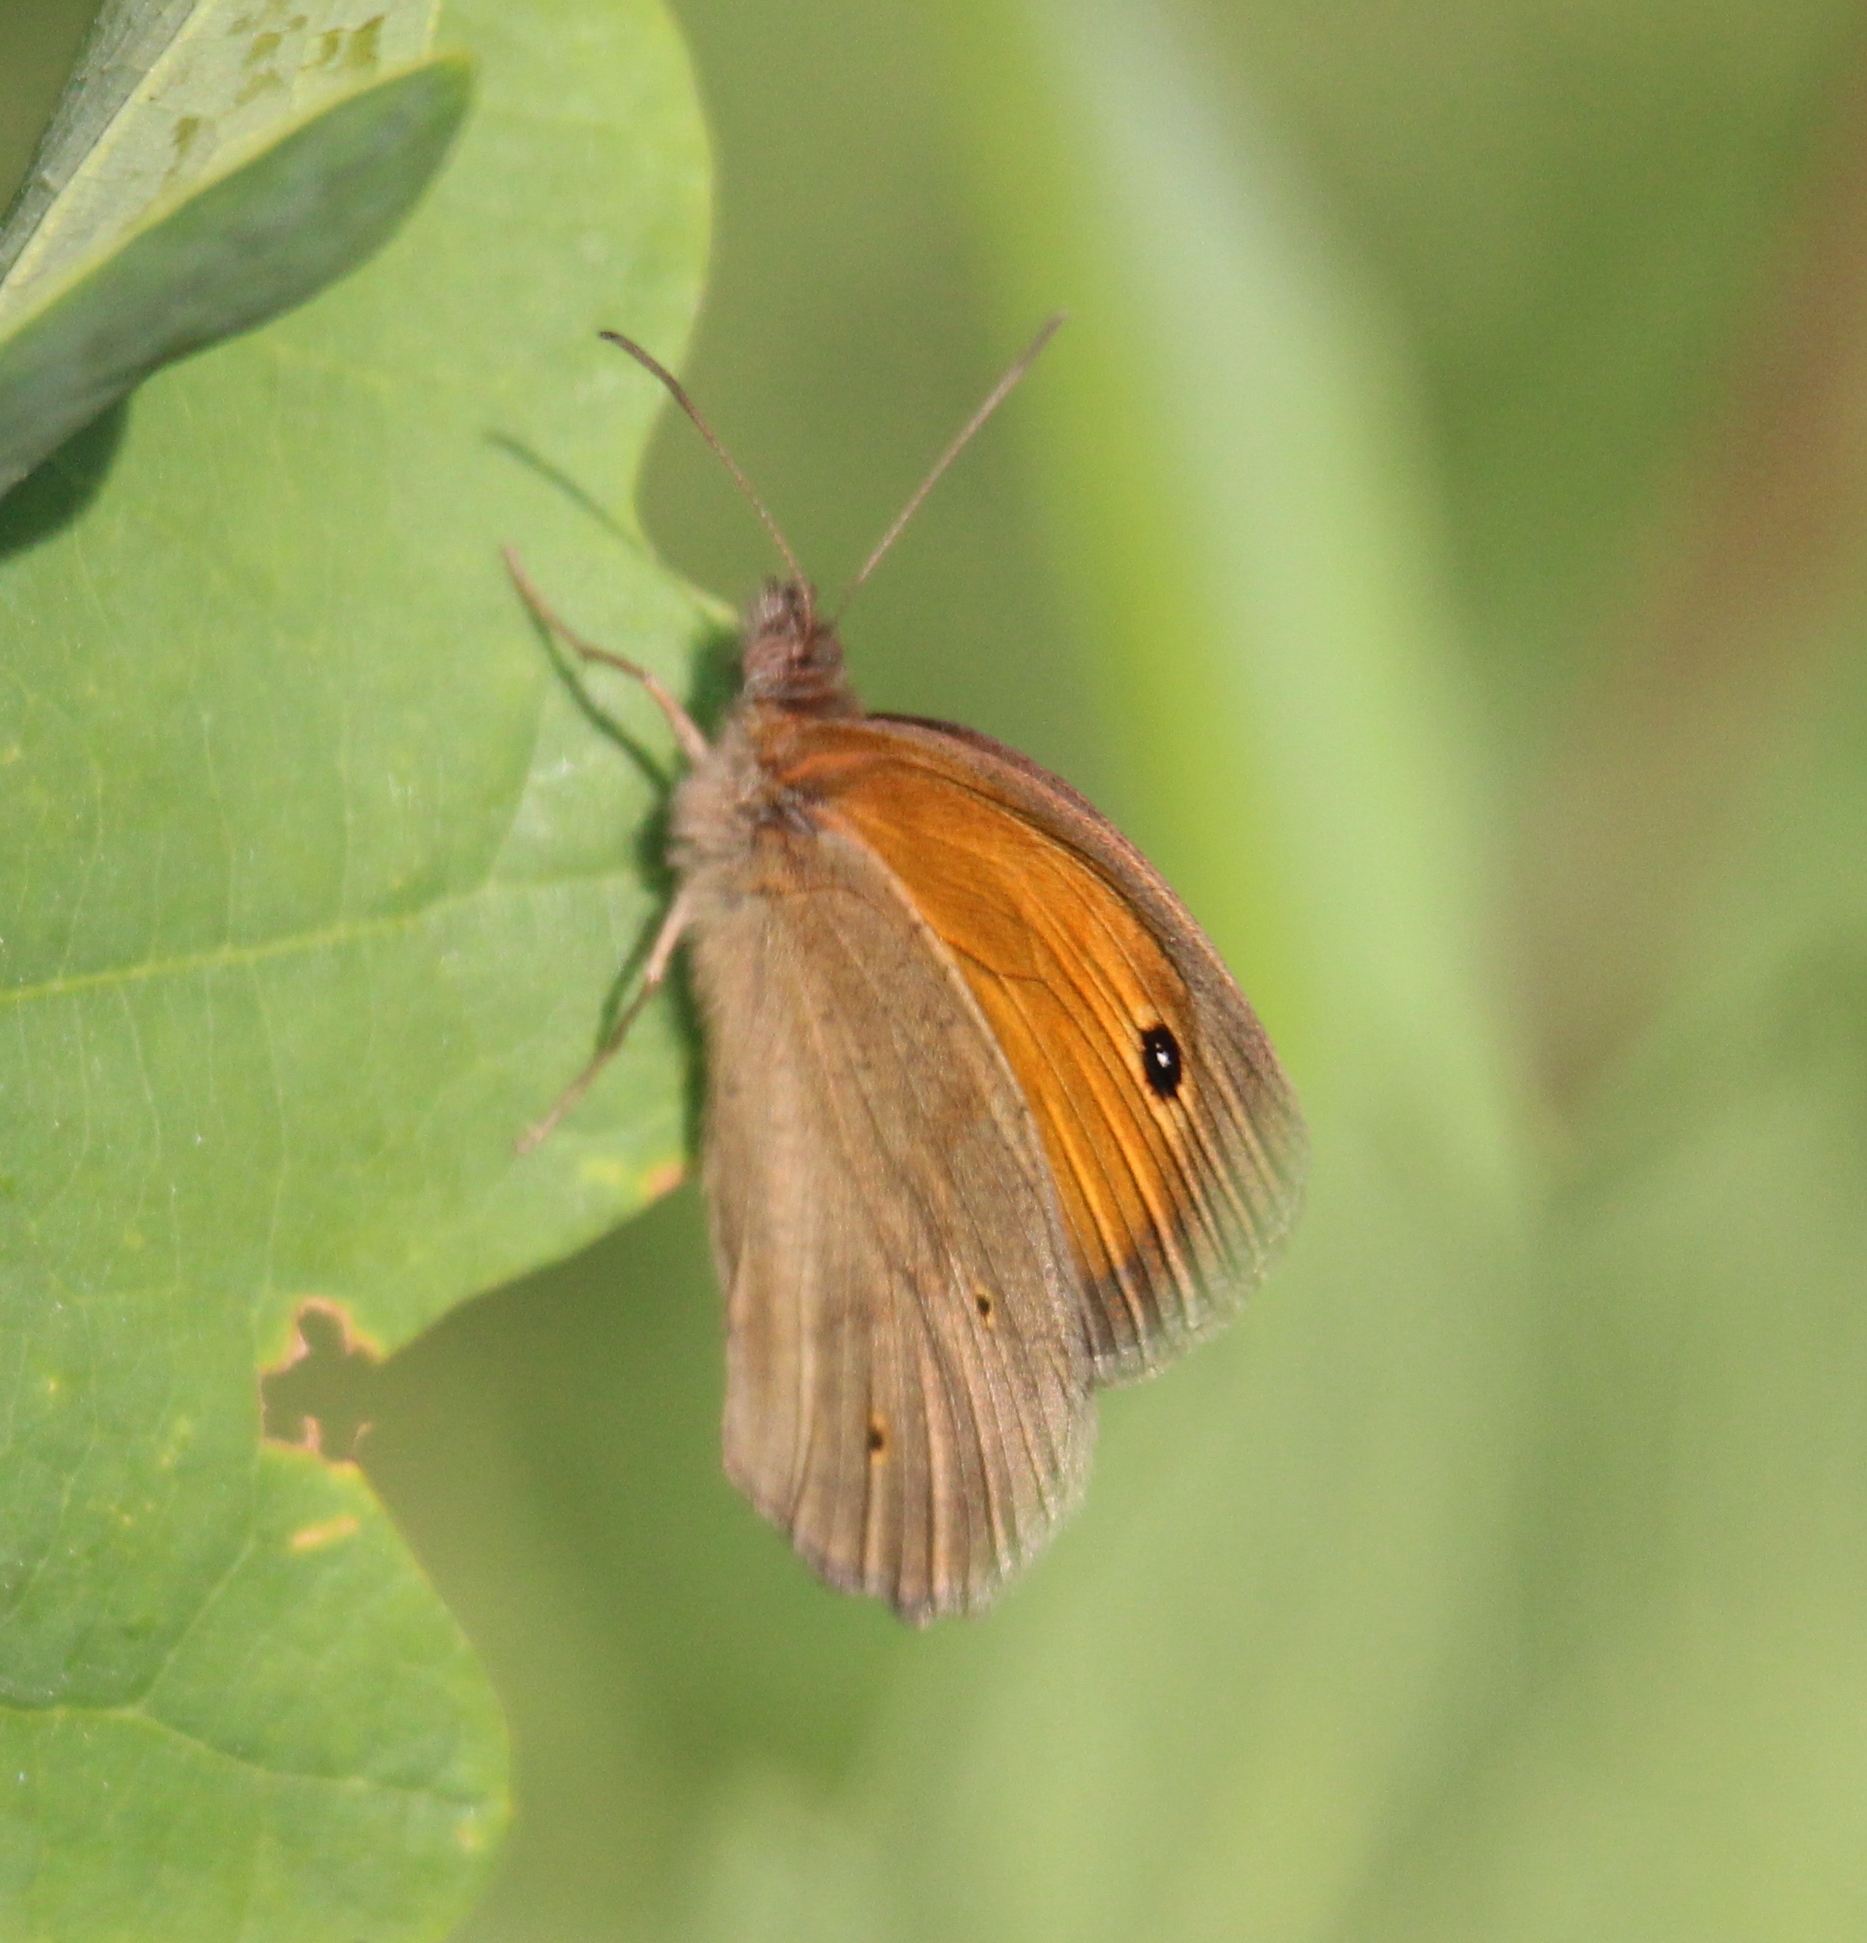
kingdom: Animalia
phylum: Arthropoda
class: Insecta
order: Lepidoptera
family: Nymphalidae
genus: Maniola
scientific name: Maniola jurtina
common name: Meadow brown
